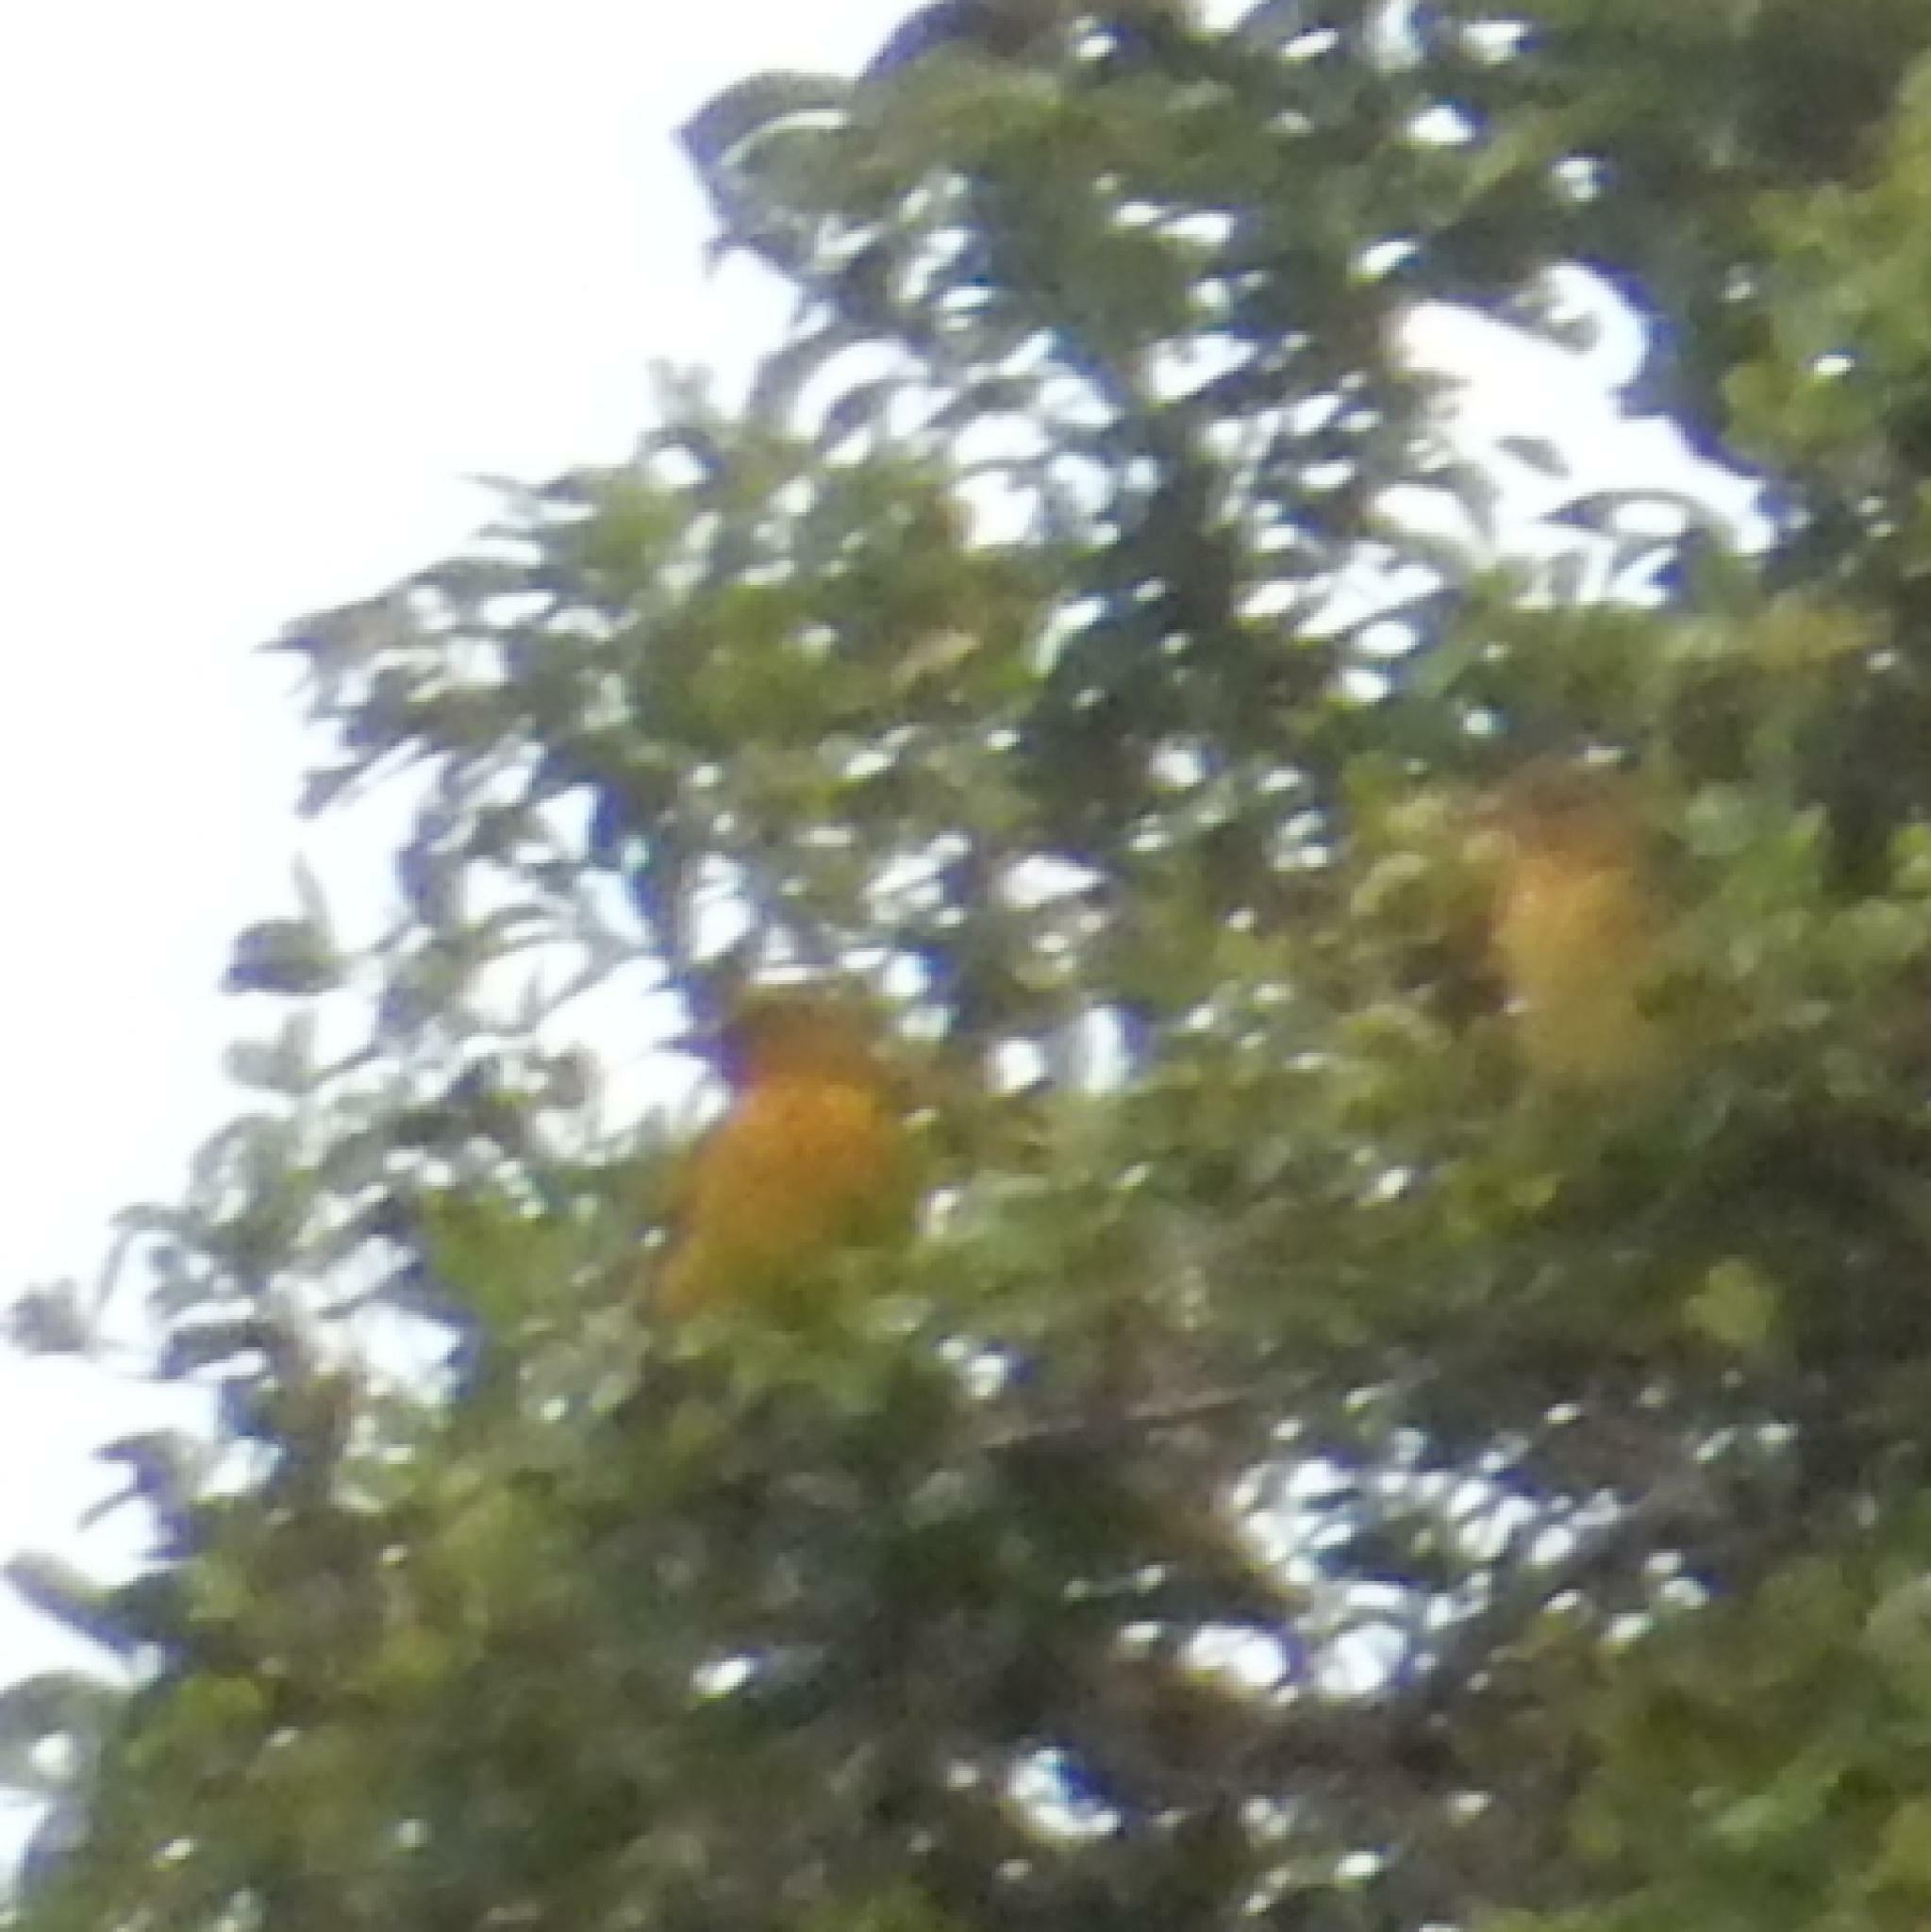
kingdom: Animalia
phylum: Chordata
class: Aves
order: Passeriformes
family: Ploceidae
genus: Ploceus
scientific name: Ploceus capensis
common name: Cape weaver
